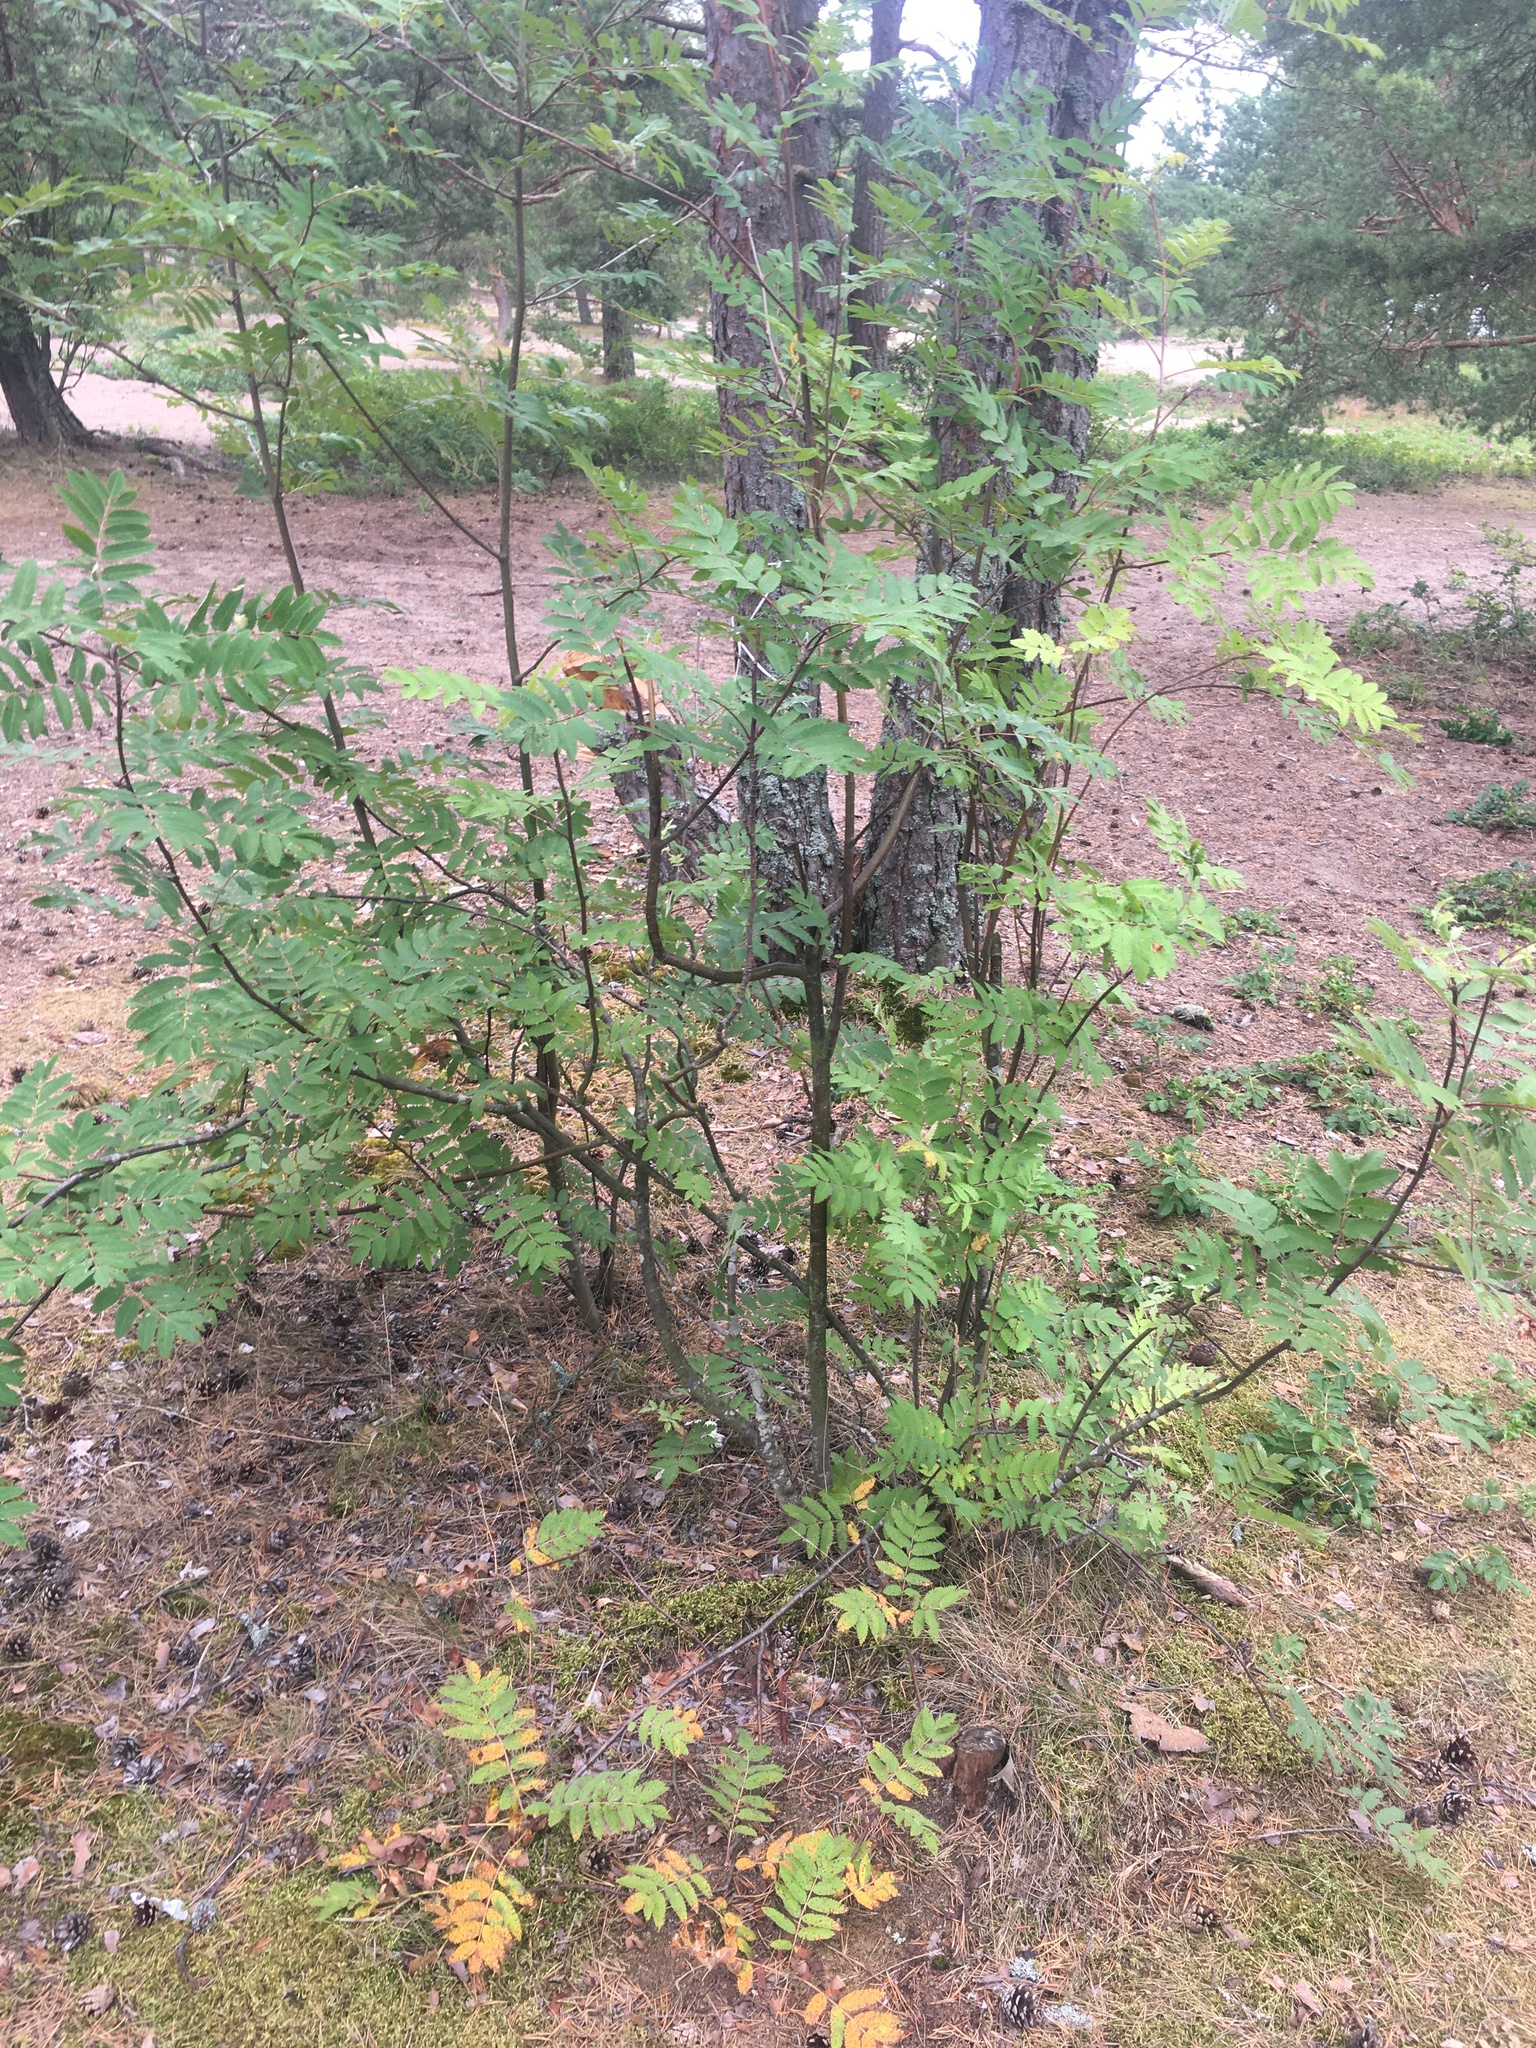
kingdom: Plantae
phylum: Tracheophyta
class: Magnoliopsida
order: Rosales
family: Rosaceae
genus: Sorbus
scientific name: Sorbus aucuparia
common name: Rowan
